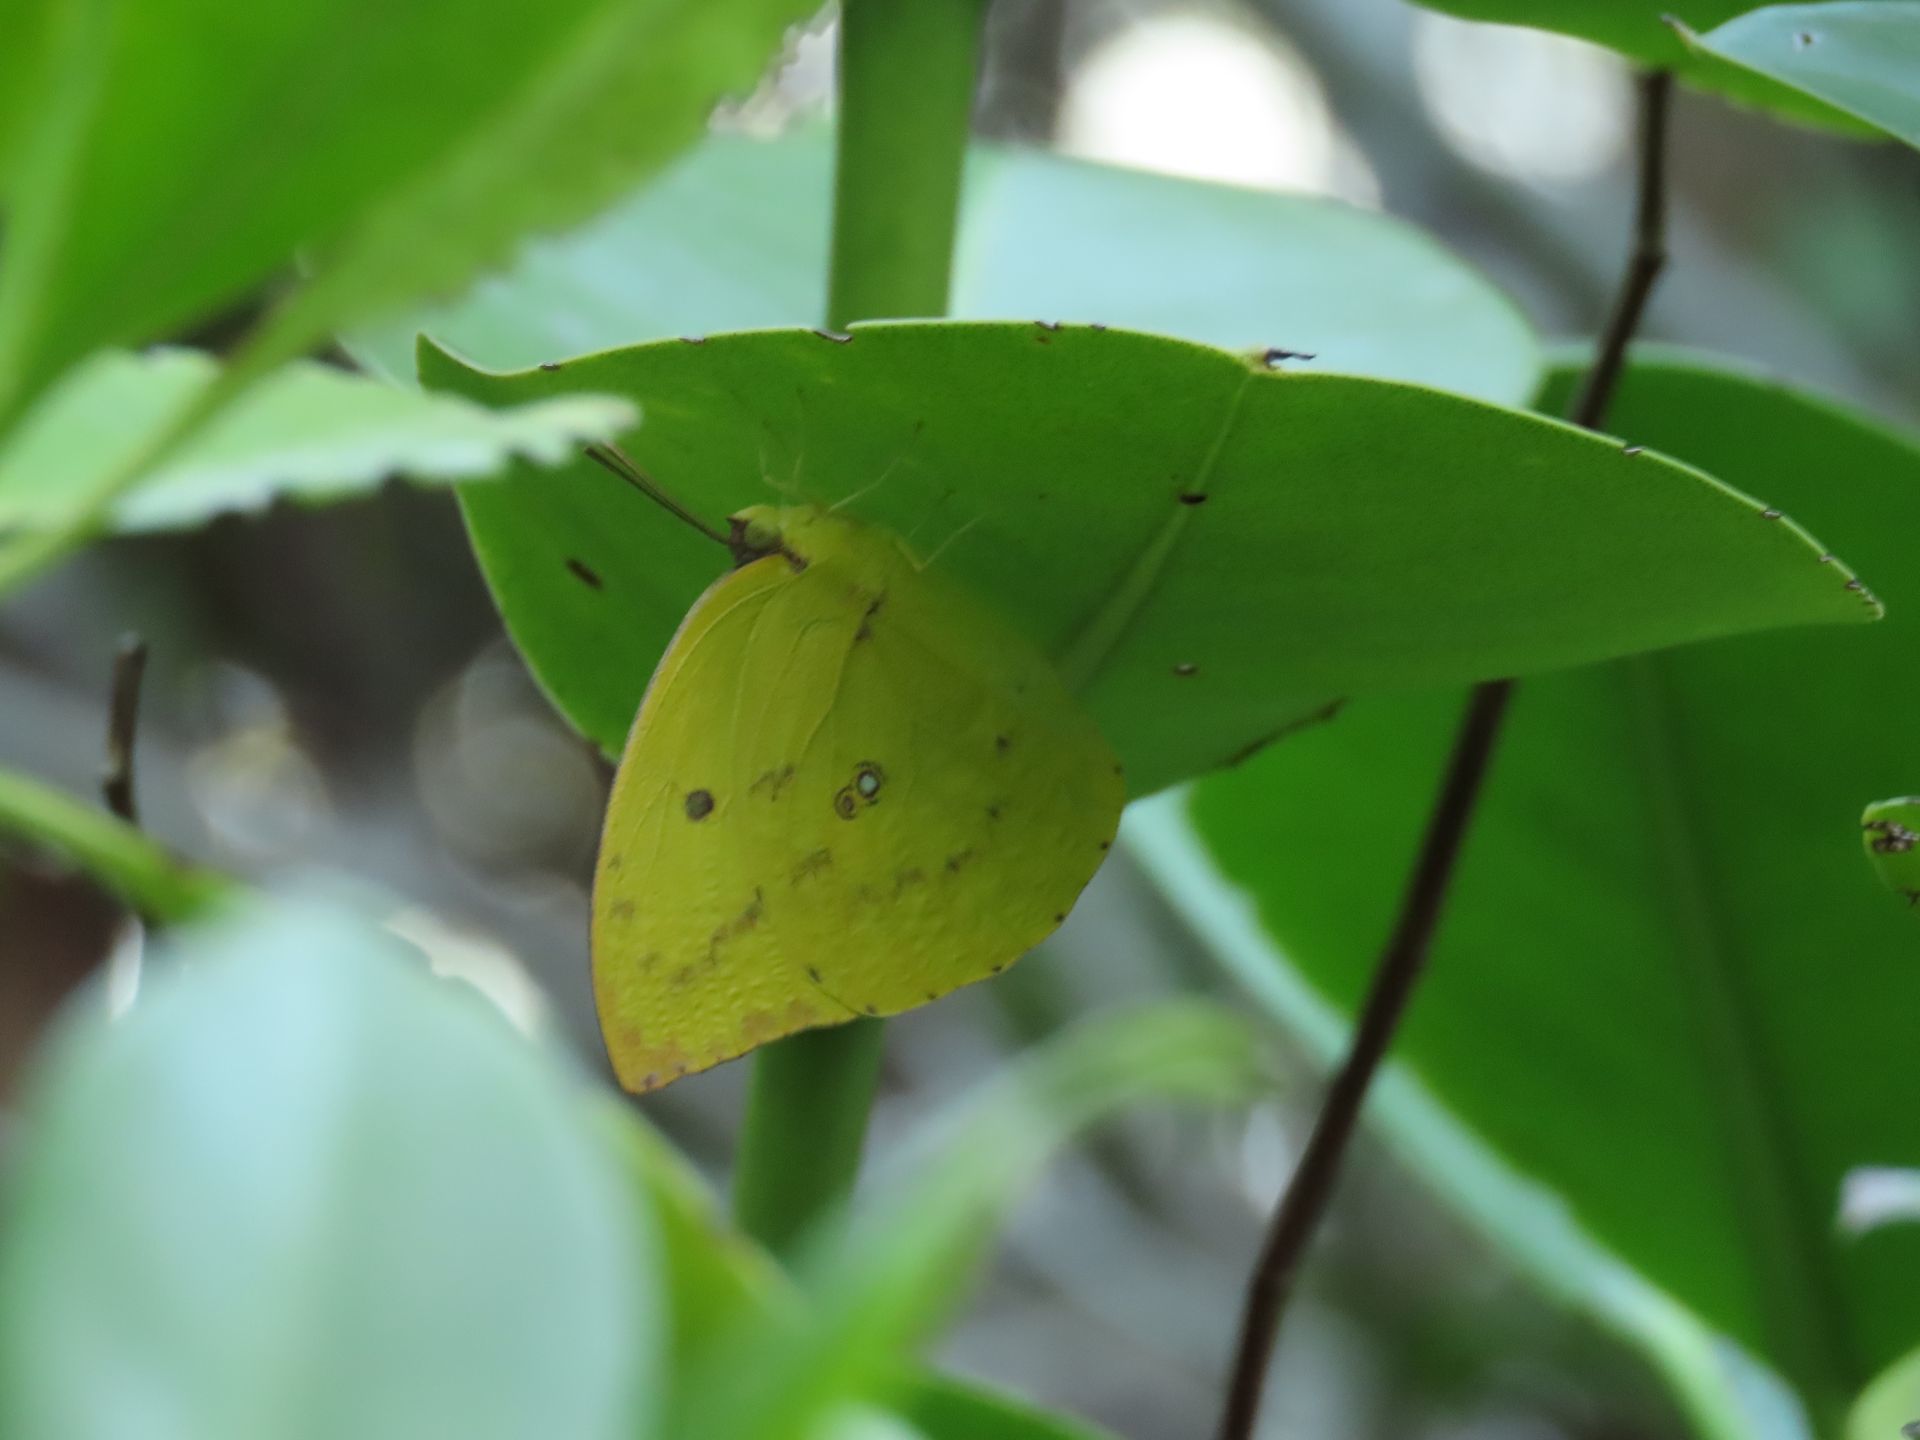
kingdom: Animalia
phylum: Arthropoda
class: Insecta
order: Lepidoptera
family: Pieridae
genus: Catopsilia
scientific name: Catopsilia pomona
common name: Common emigrant
